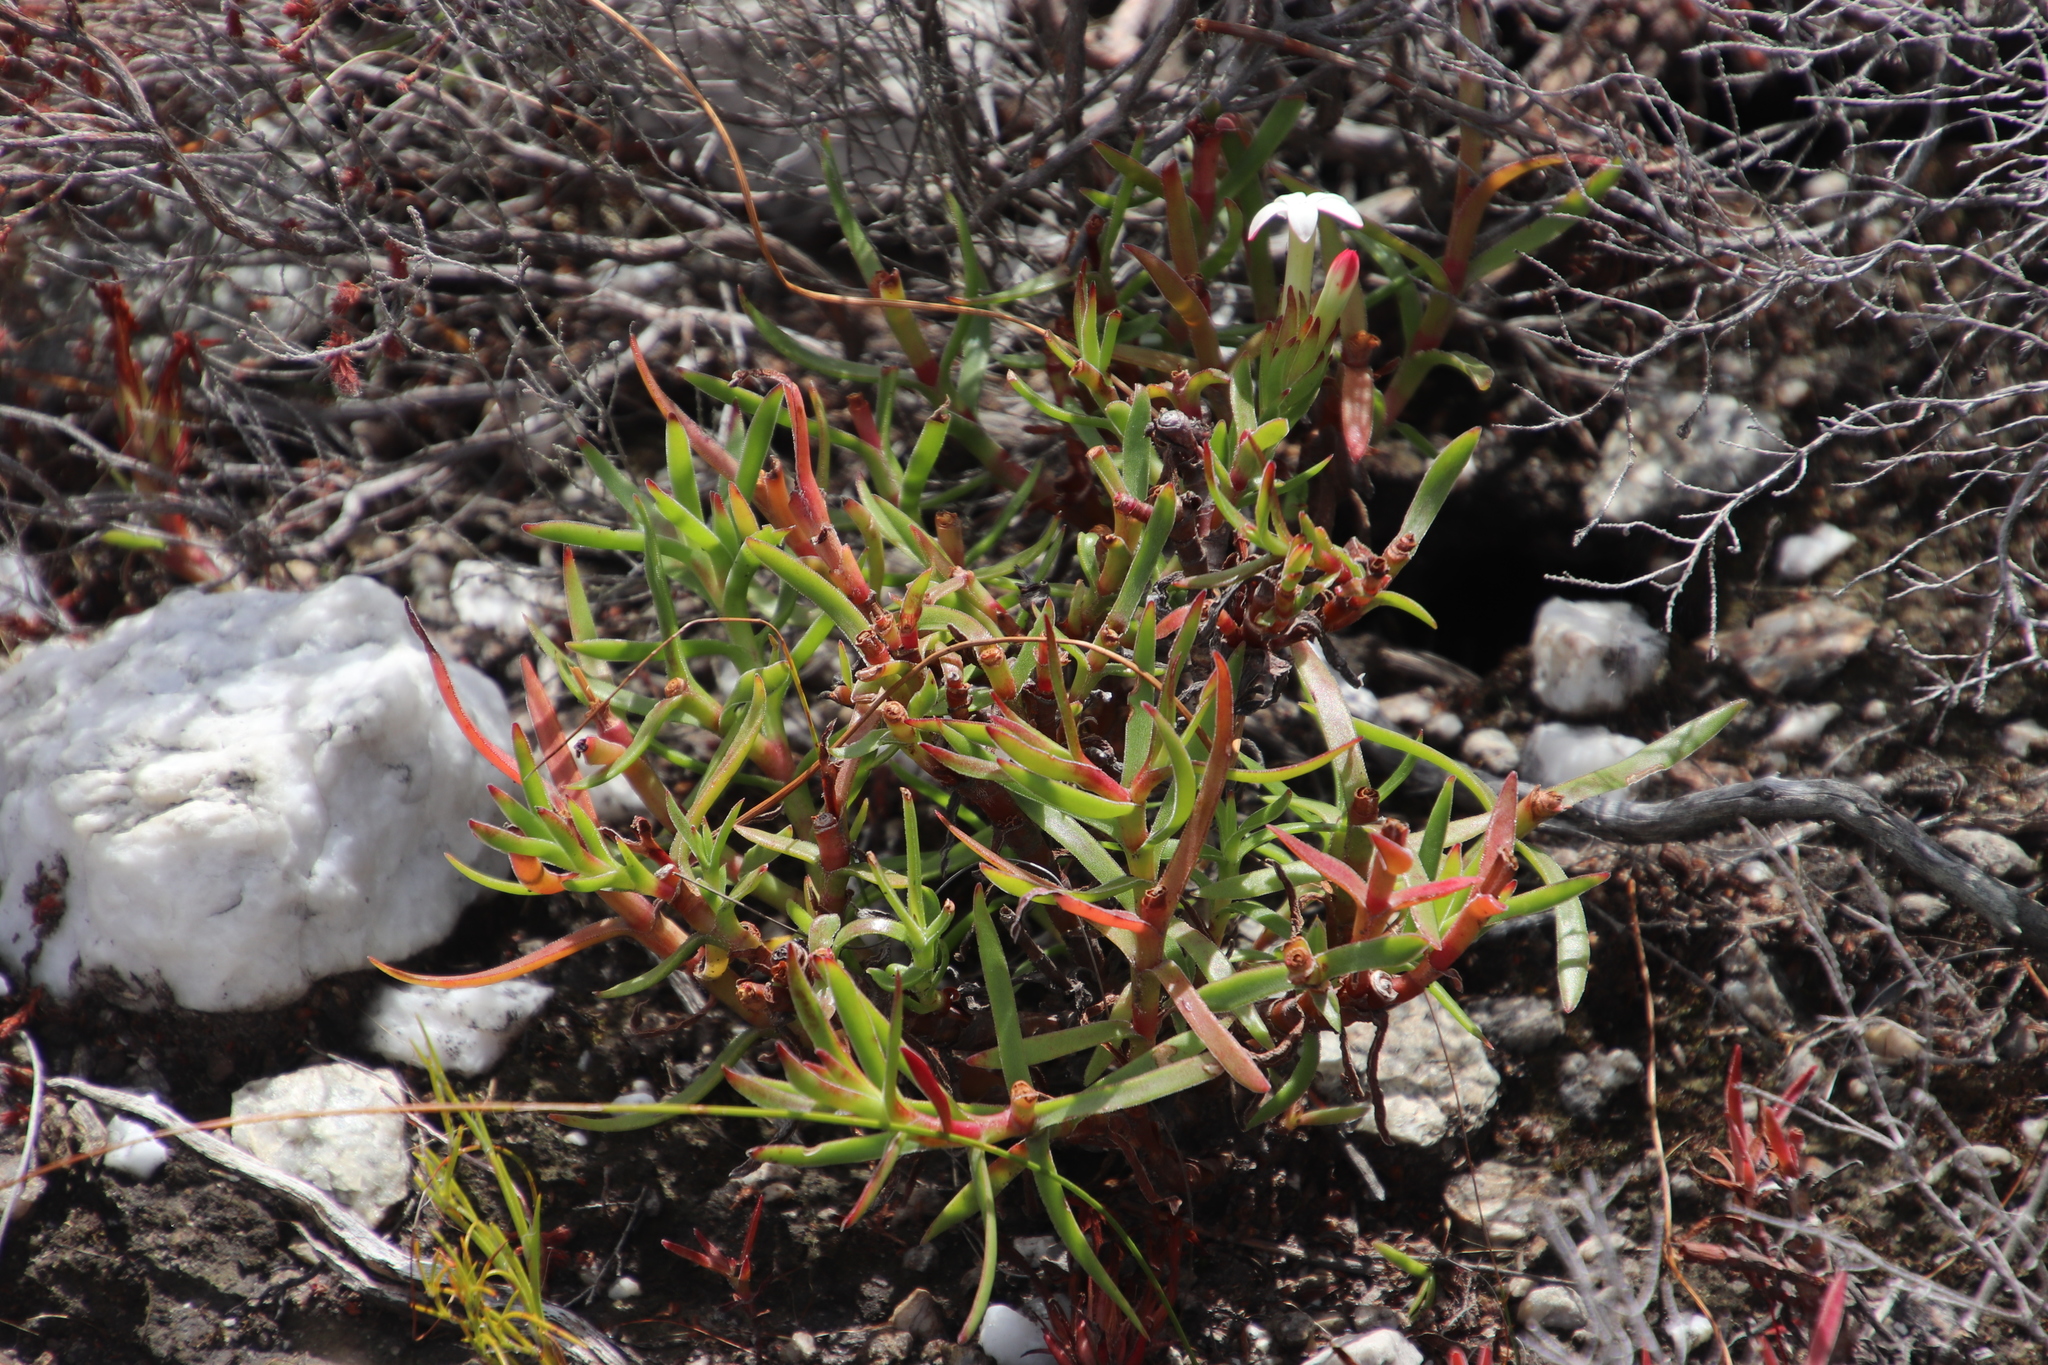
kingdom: Plantae
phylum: Tracheophyta
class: Magnoliopsida
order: Saxifragales
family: Crassulaceae
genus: Crassula
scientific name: Crassula fascicularis
